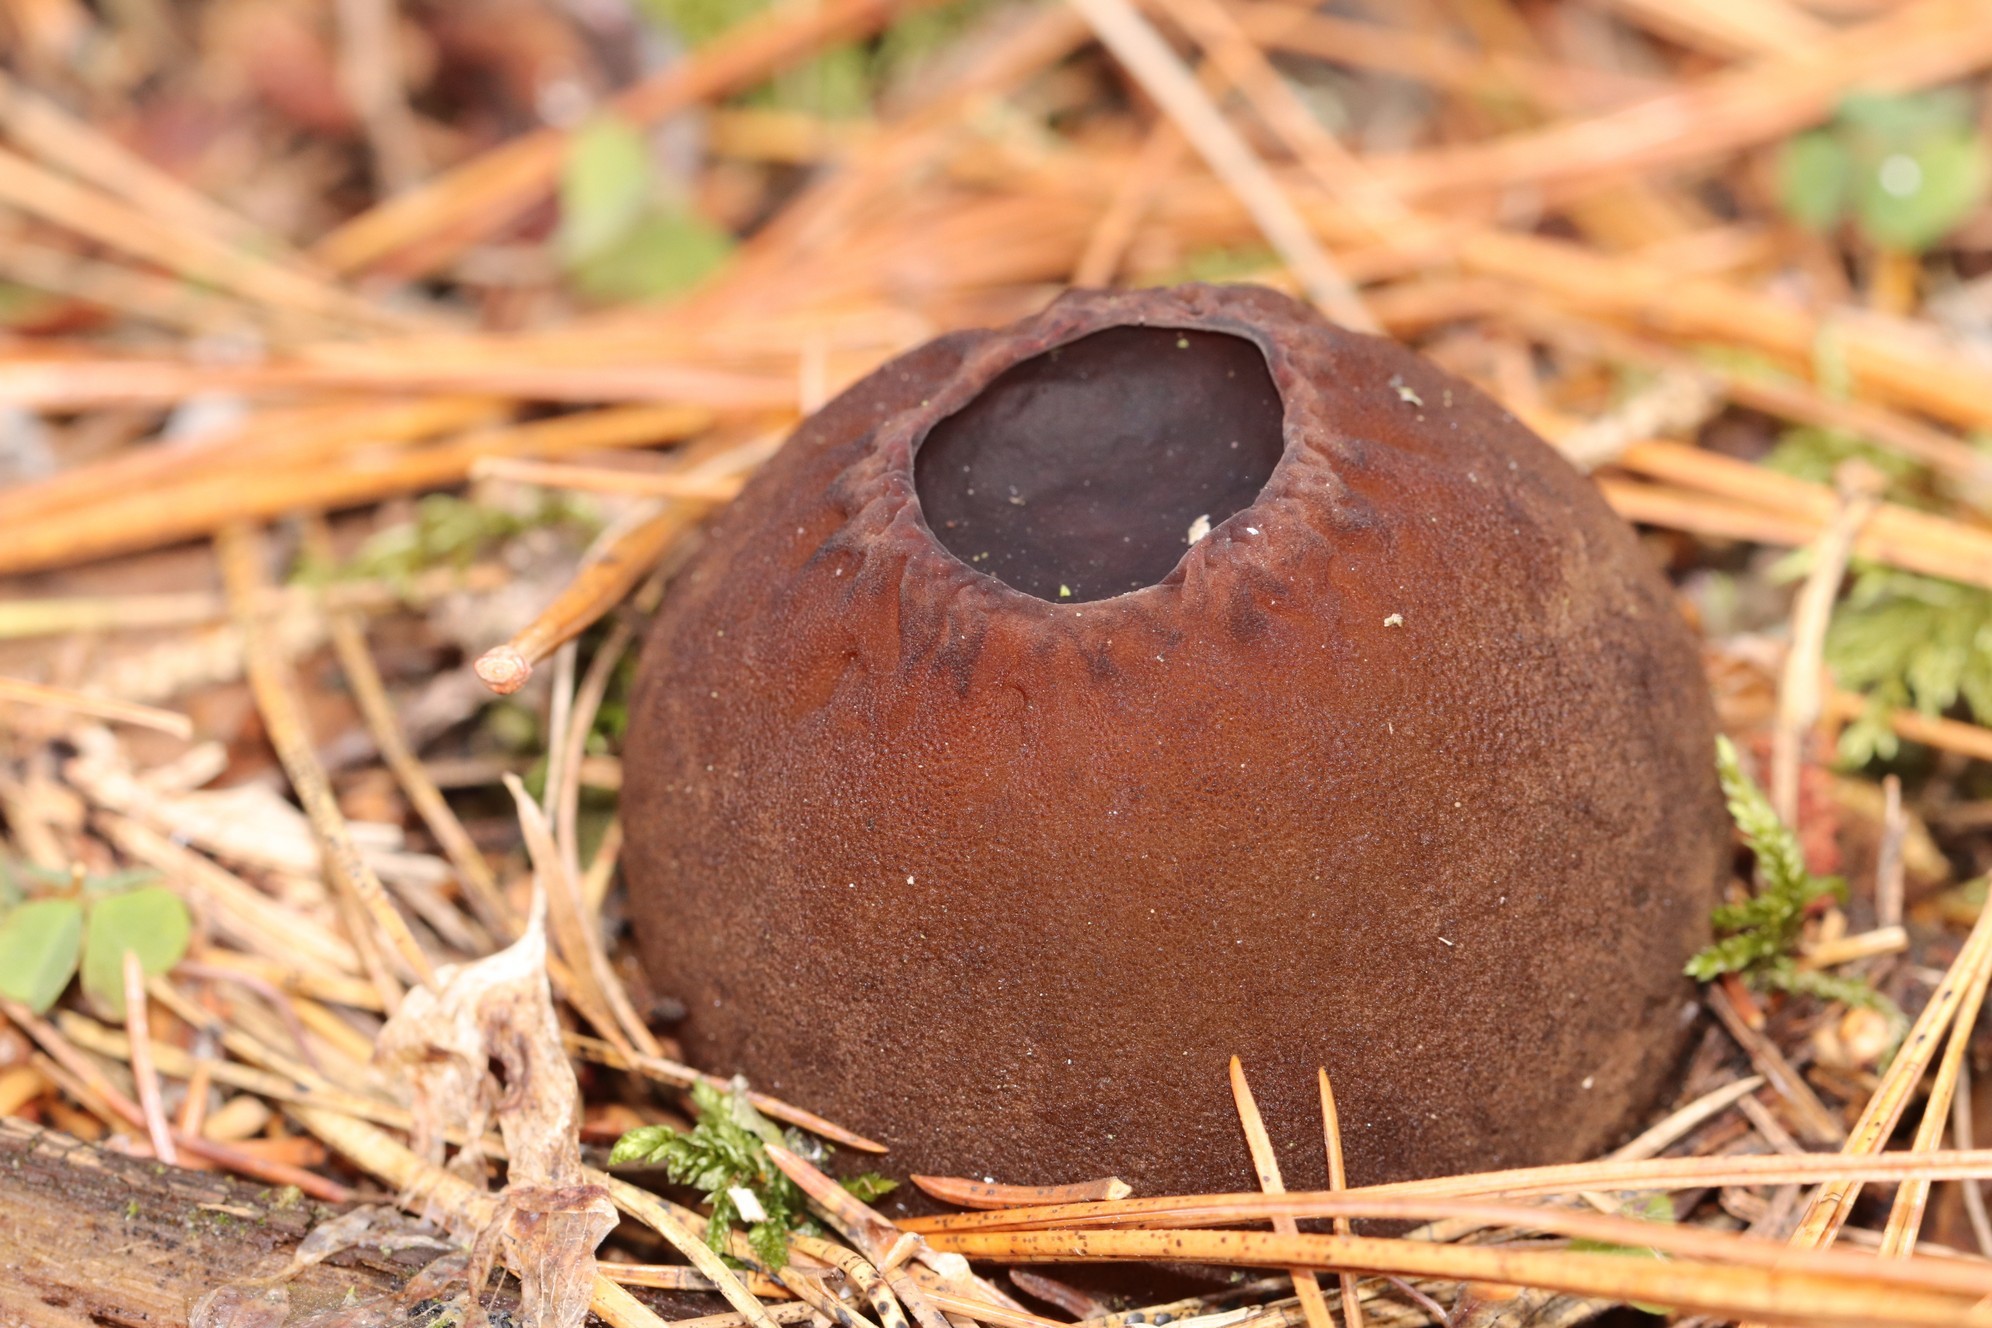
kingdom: Fungi
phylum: Ascomycota
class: Pezizomycetes
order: Pezizales
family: Sarcosomataceae
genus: Sarcosoma
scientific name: Sarcosoma globosum
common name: Charred-pancake cup
